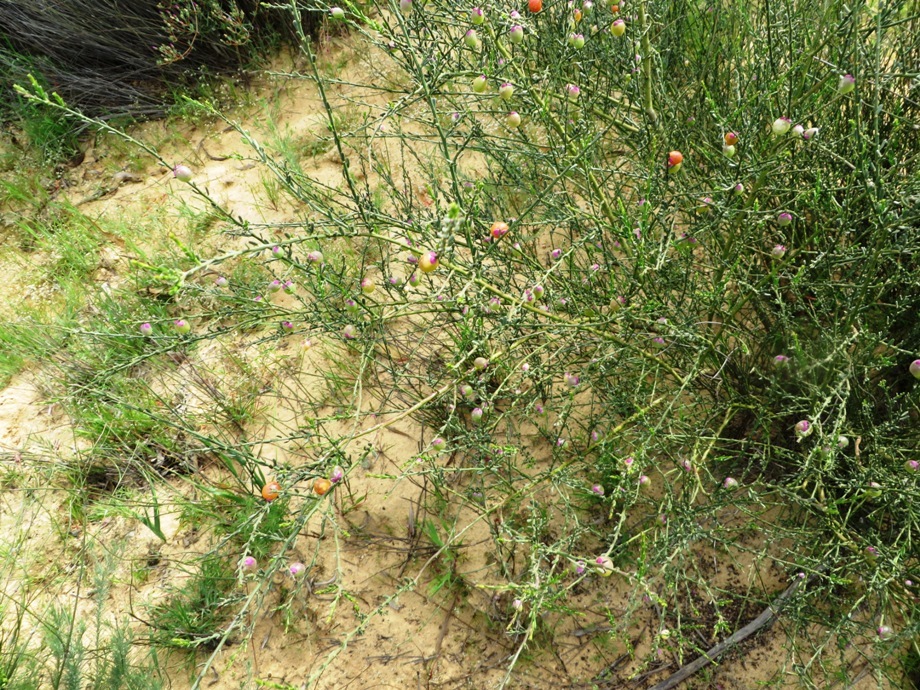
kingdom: Plantae
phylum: Tracheophyta
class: Magnoliopsida
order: Fabales
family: Polygalaceae
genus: Muraltia
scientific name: Muraltia spinosa
